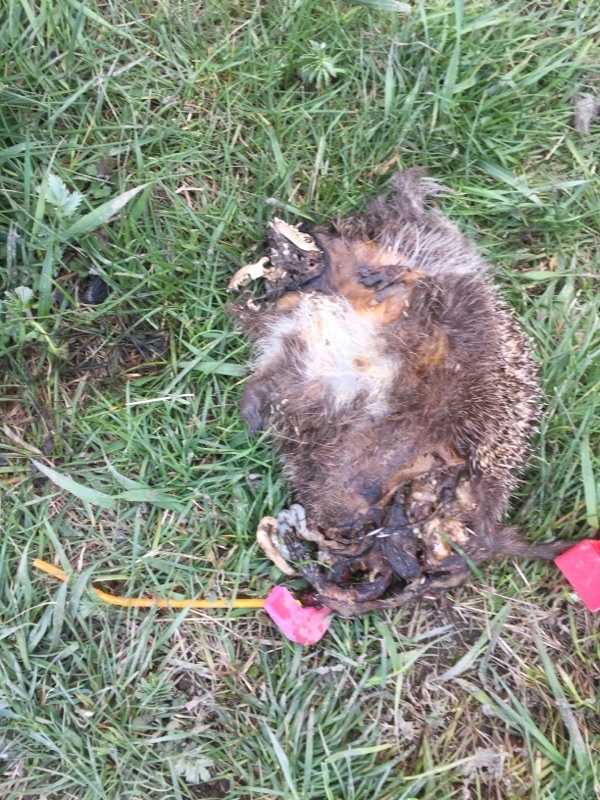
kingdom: Animalia
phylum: Chordata
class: Mammalia
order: Erinaceomorpha
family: Erinaceidae
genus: Erinaceus
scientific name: Erinaceus roumanicus
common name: Northern white-breasted hedgehog
